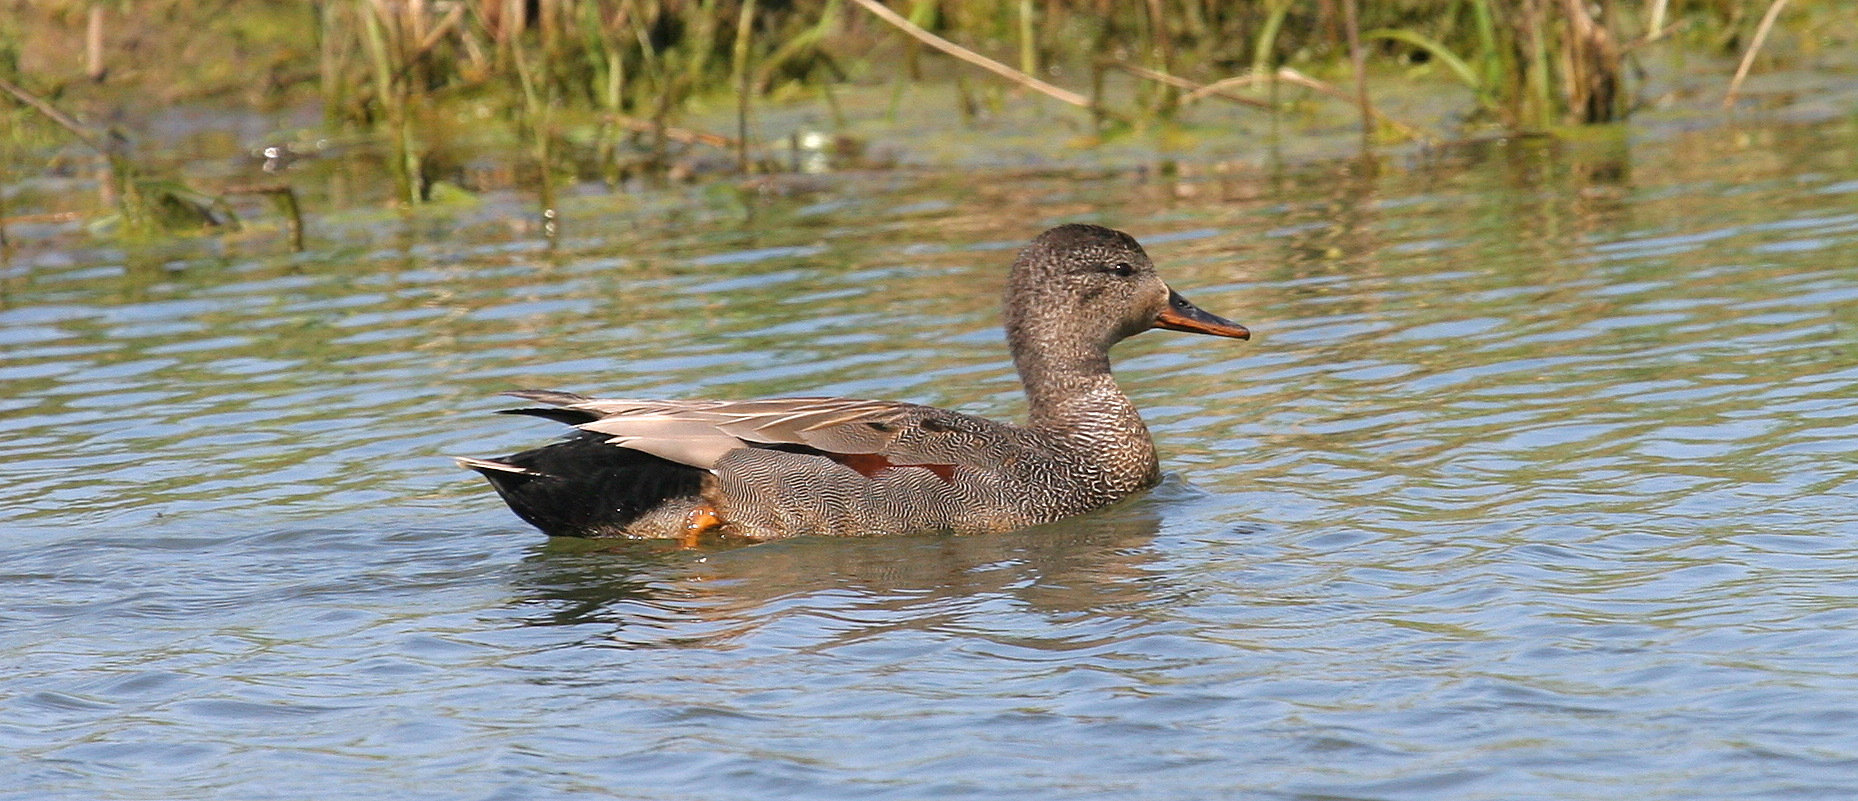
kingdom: Animalia
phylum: Chordata
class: Aves
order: Anseriformes
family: Anatidae
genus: Mareca
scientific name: Mareca strepera
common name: Gadwall
